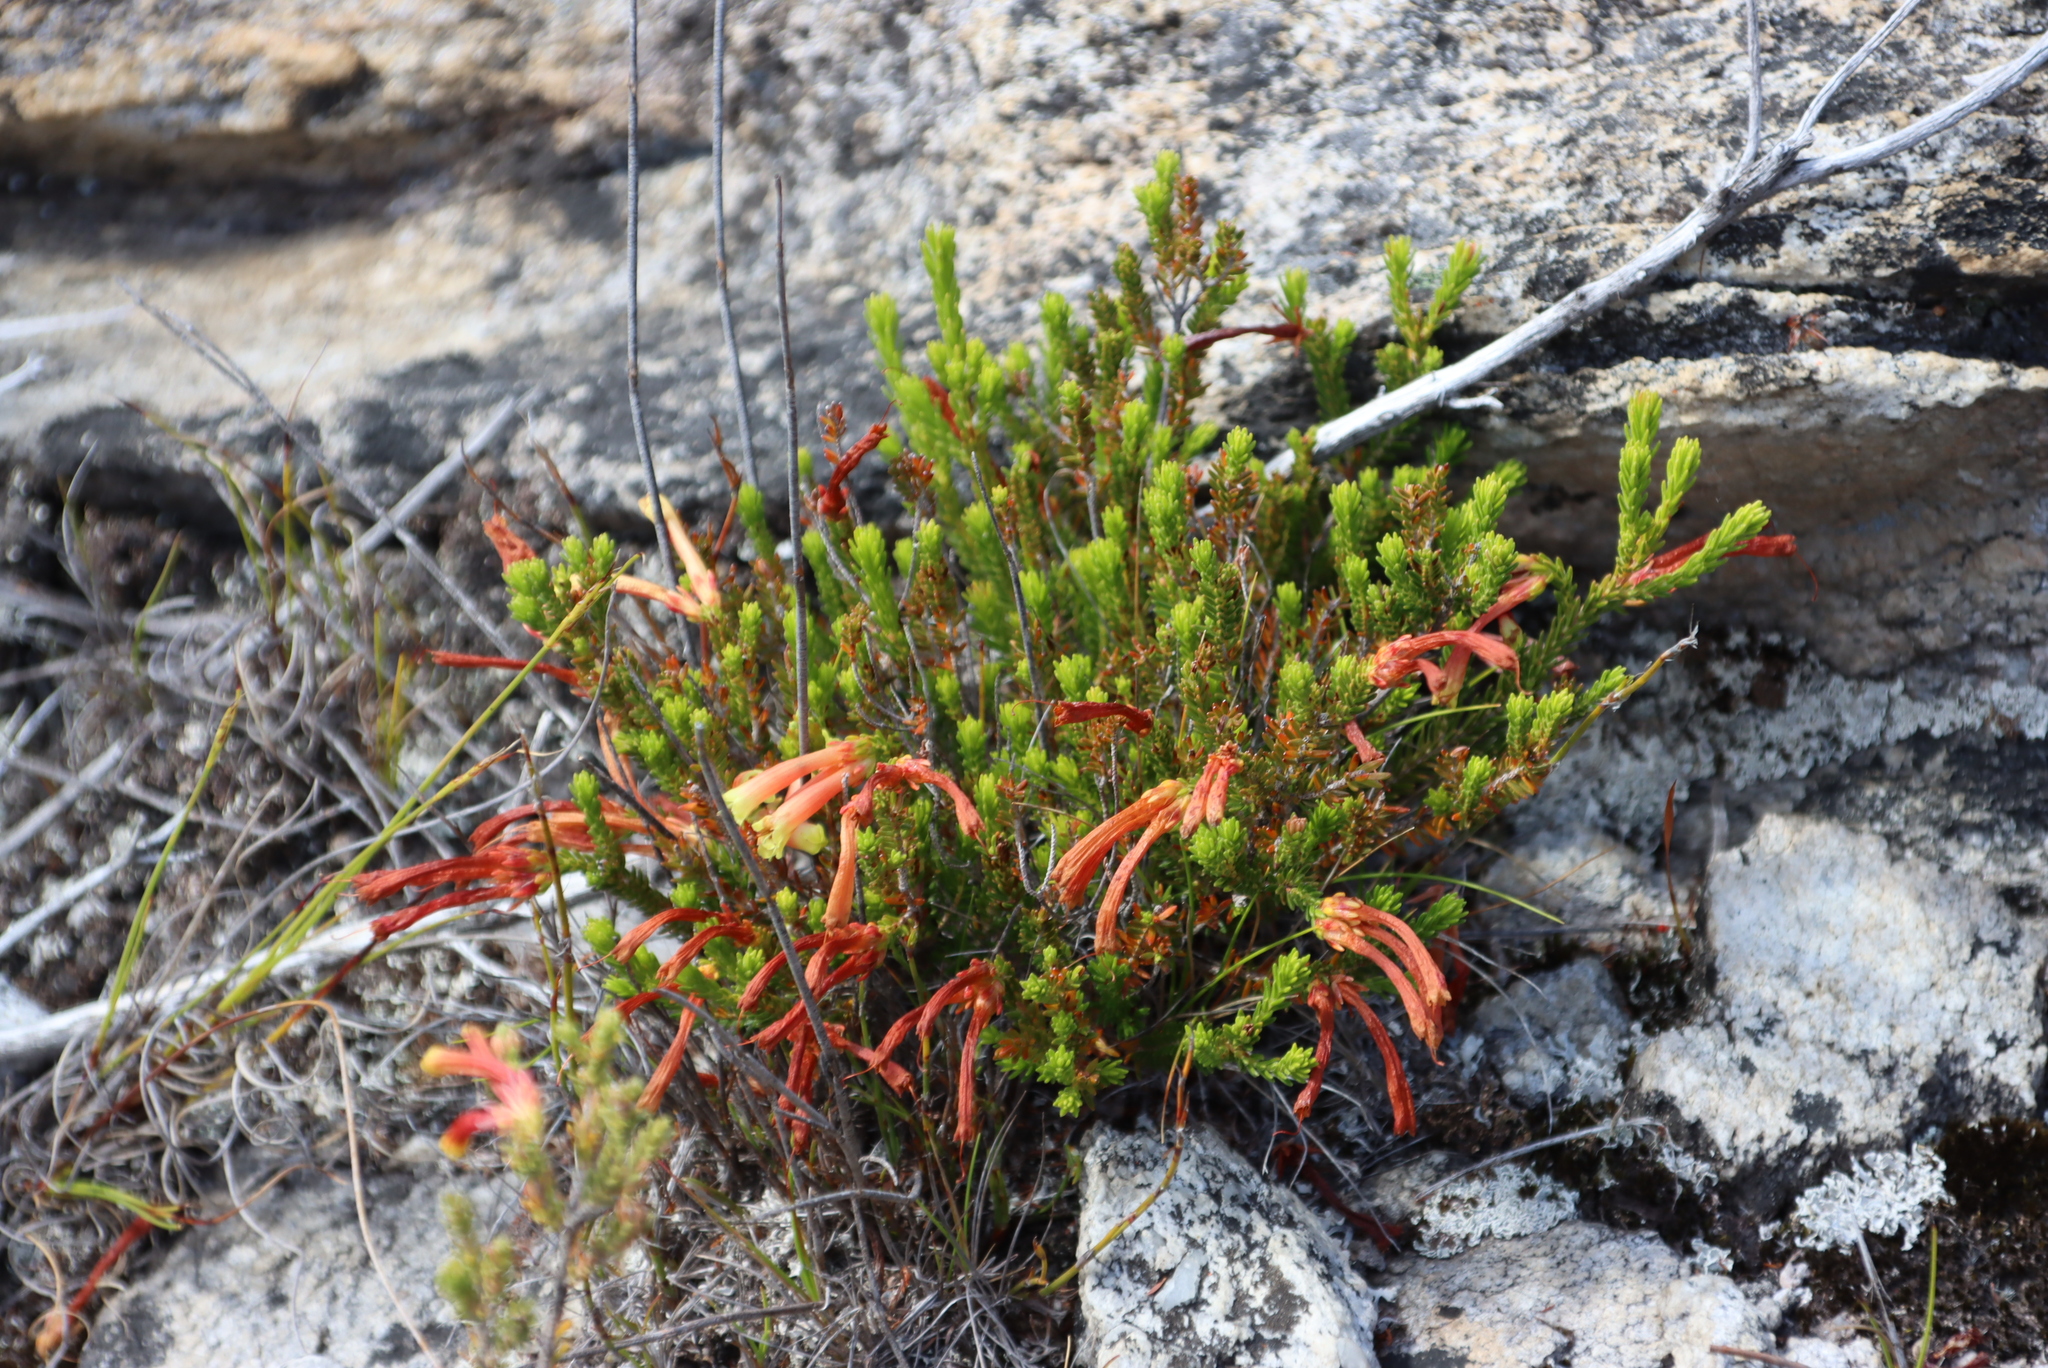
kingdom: Plantae
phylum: Tracheophyta
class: Magnoliopsida
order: Ericales
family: Ericaceae
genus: Erica
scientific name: Erica discolor
